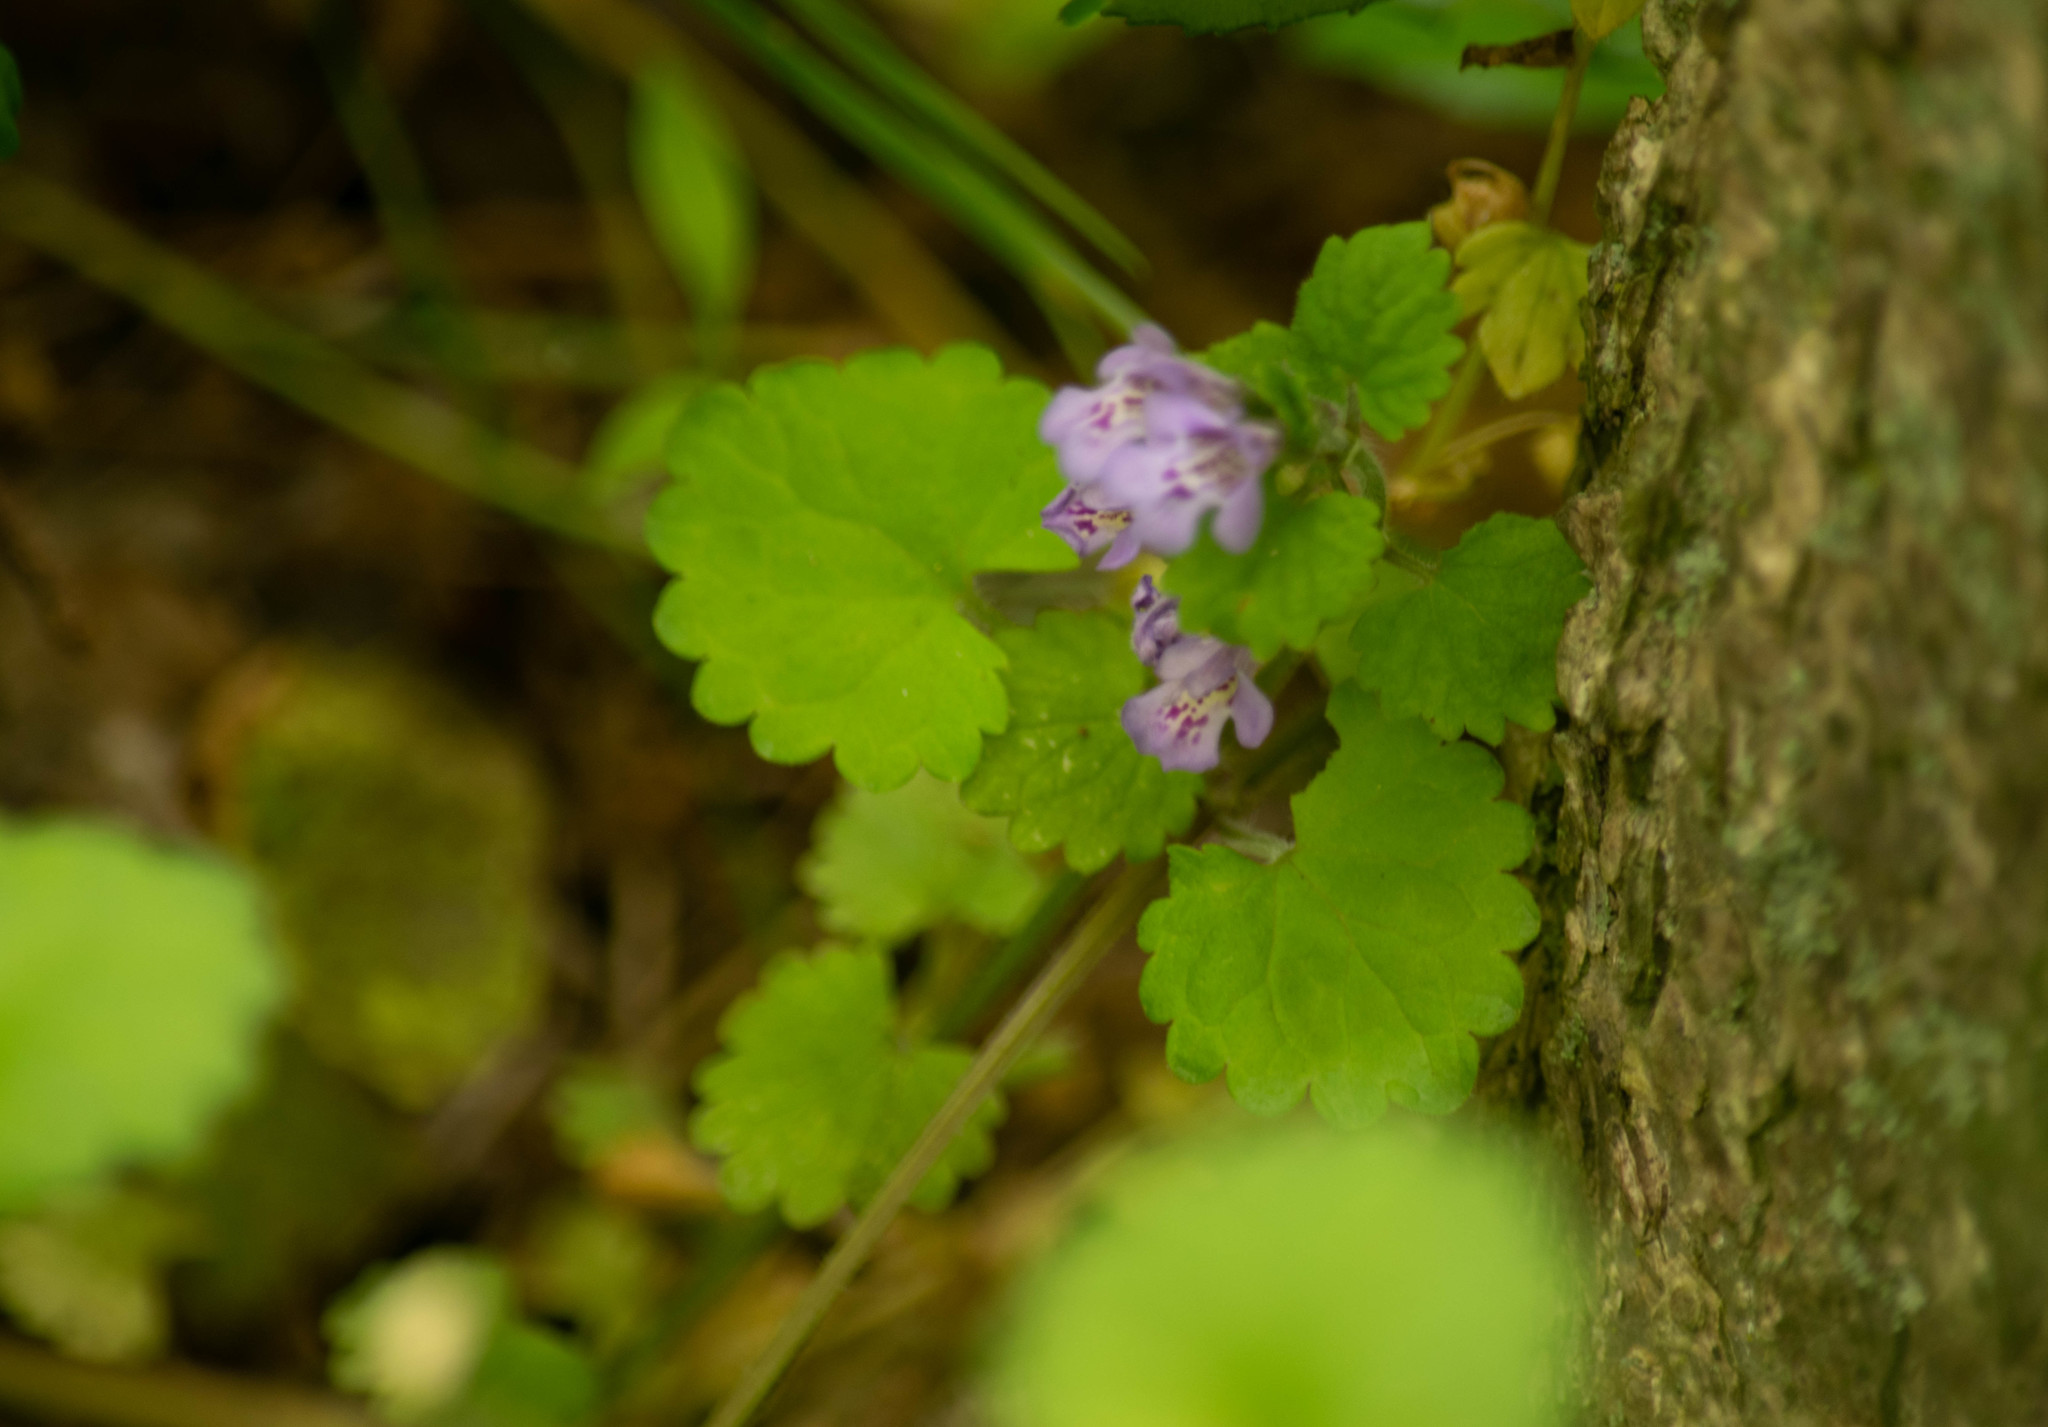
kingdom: Plantae
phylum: Tracheophyta
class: Magnoliopsida
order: Lamiales
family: Lamiaceae
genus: Glechoma
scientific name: Glechoma hederacea
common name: Ground ivy
